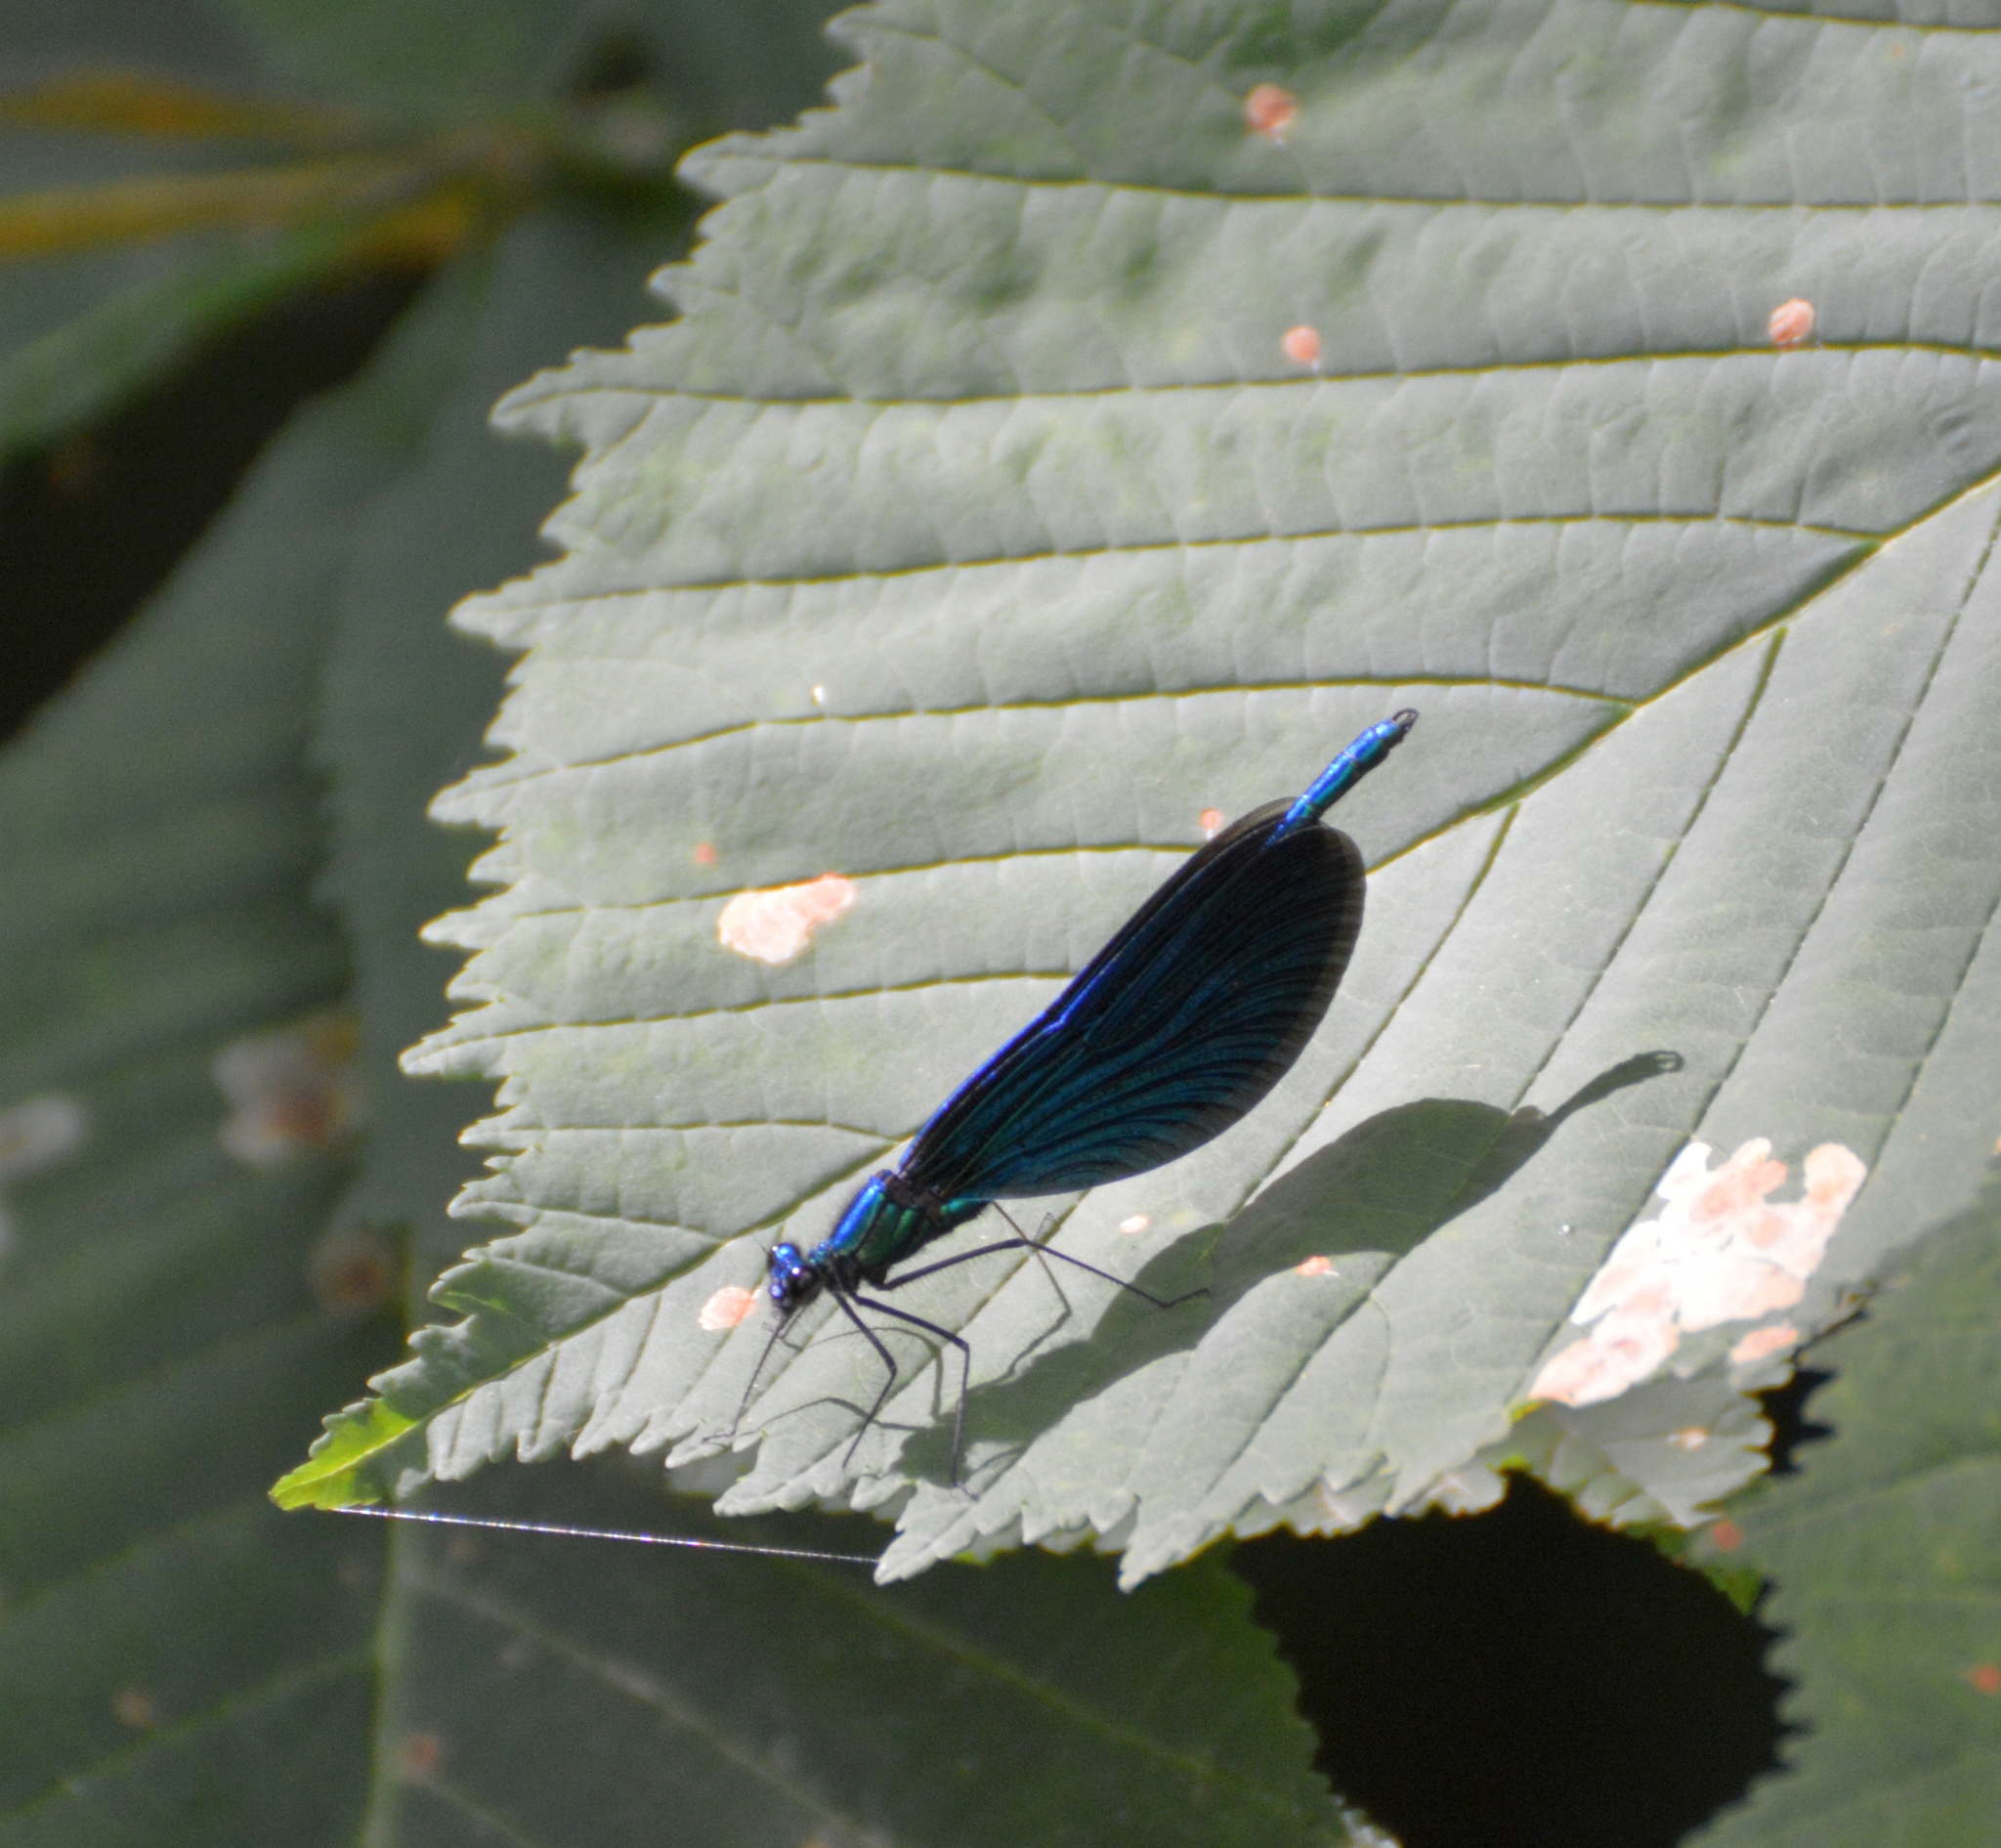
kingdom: Animalia
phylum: Arthropoda
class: Insecta
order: Odonata
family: Calopterygidae
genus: Calopteryx
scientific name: Calopteryx virgo
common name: Beautiful demoiselle
